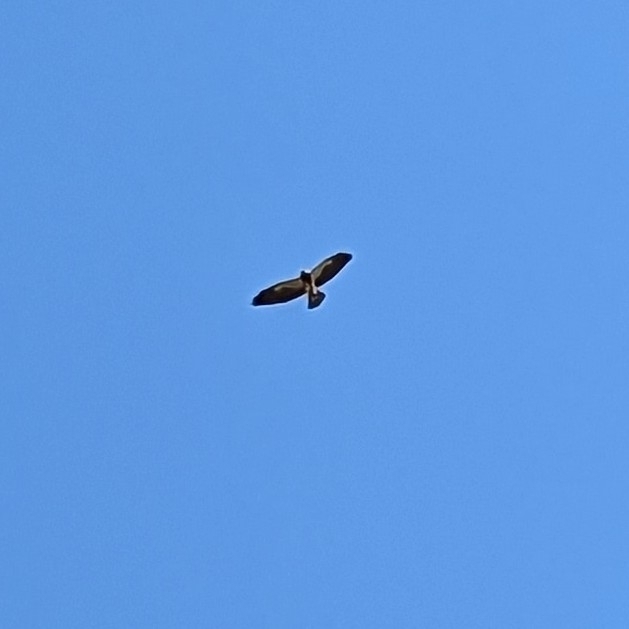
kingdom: Animalia
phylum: Chordata
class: Aves
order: Accipitriformes
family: Accipitridae
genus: Buteo
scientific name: Buteo swainsoni
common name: Swainson's hawk
